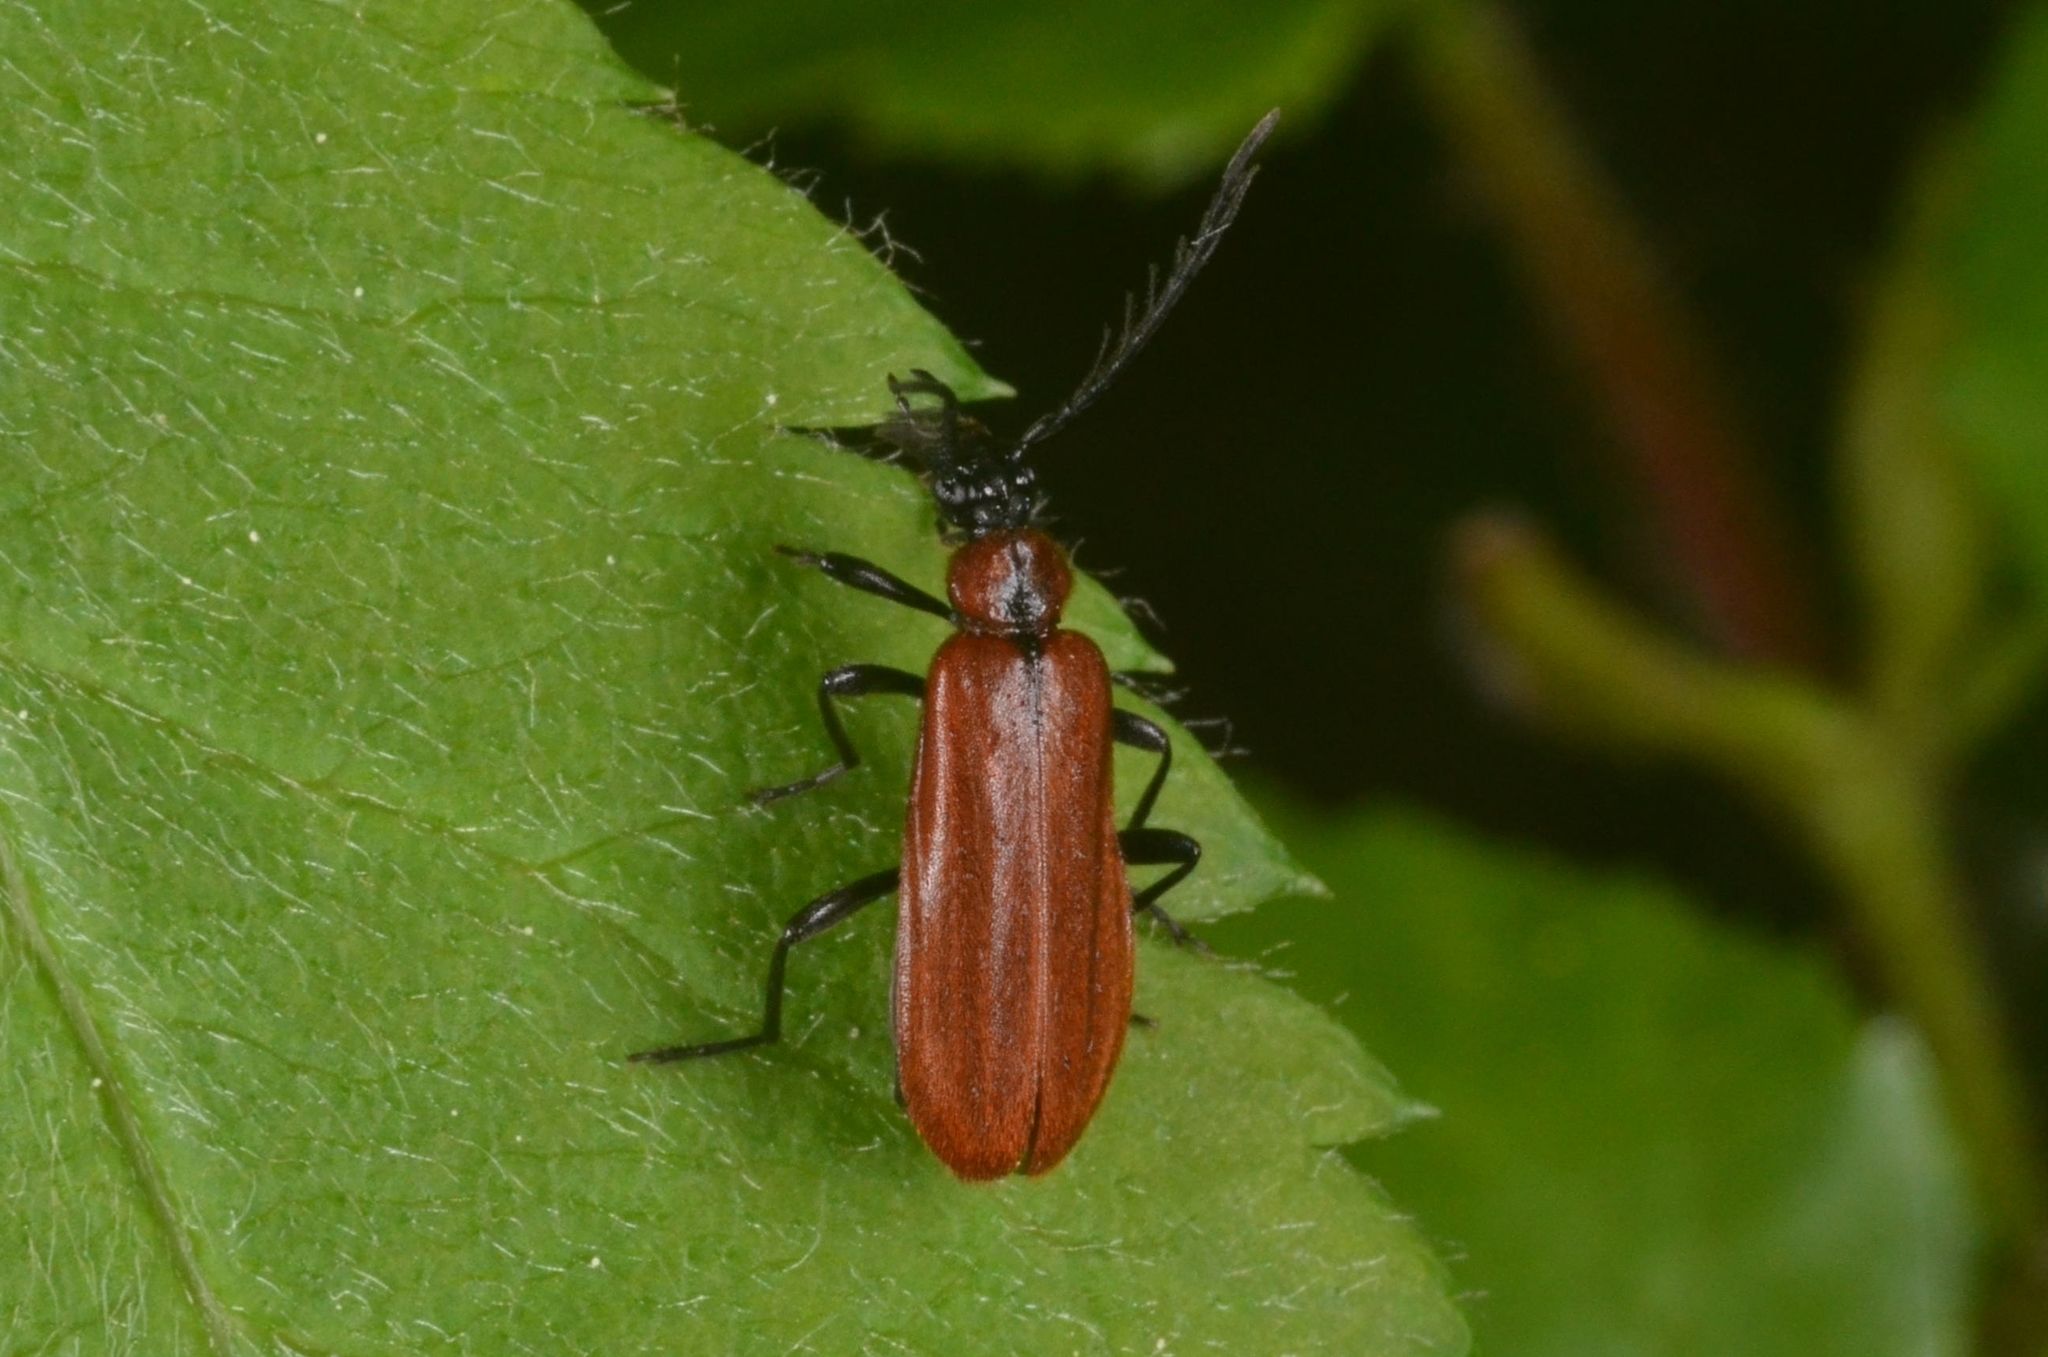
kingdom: Animalia
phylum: Arthropoda
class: Insecta
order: Coleoptera
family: Pyrochroidae
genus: Schizotus
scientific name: Schizotus pectinicornis
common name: Scarce cardinal beetle
